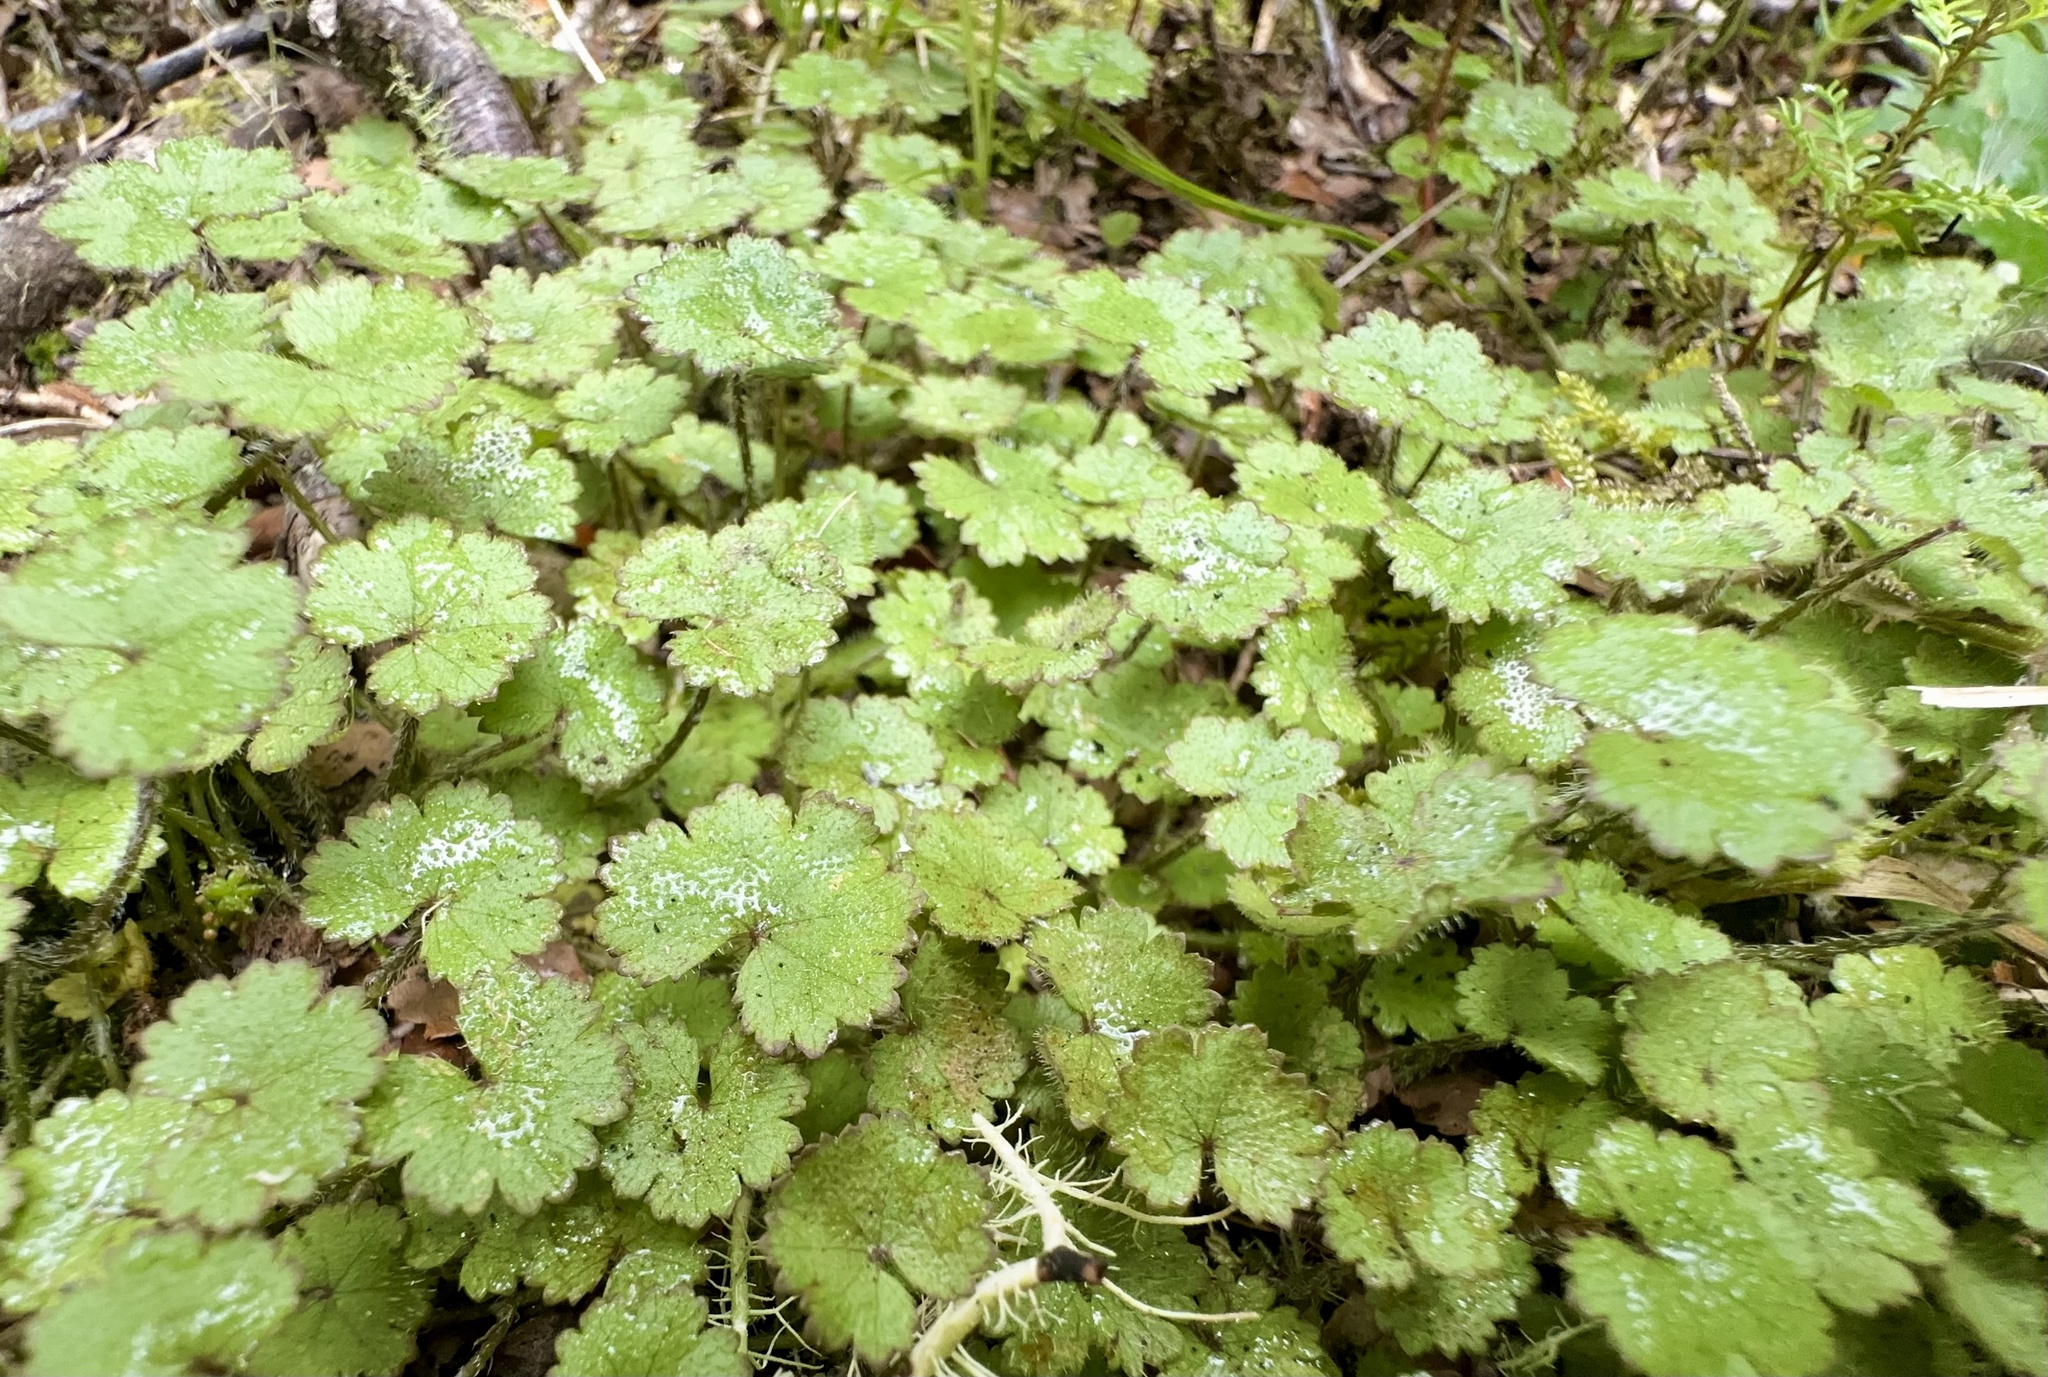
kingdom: Plantae
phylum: Tracheophyta
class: Magnoliopsida
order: Apiales
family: Araliaceae
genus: Hydrocotyle
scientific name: Hydrocotyle moschata
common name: Hairy pennywort
